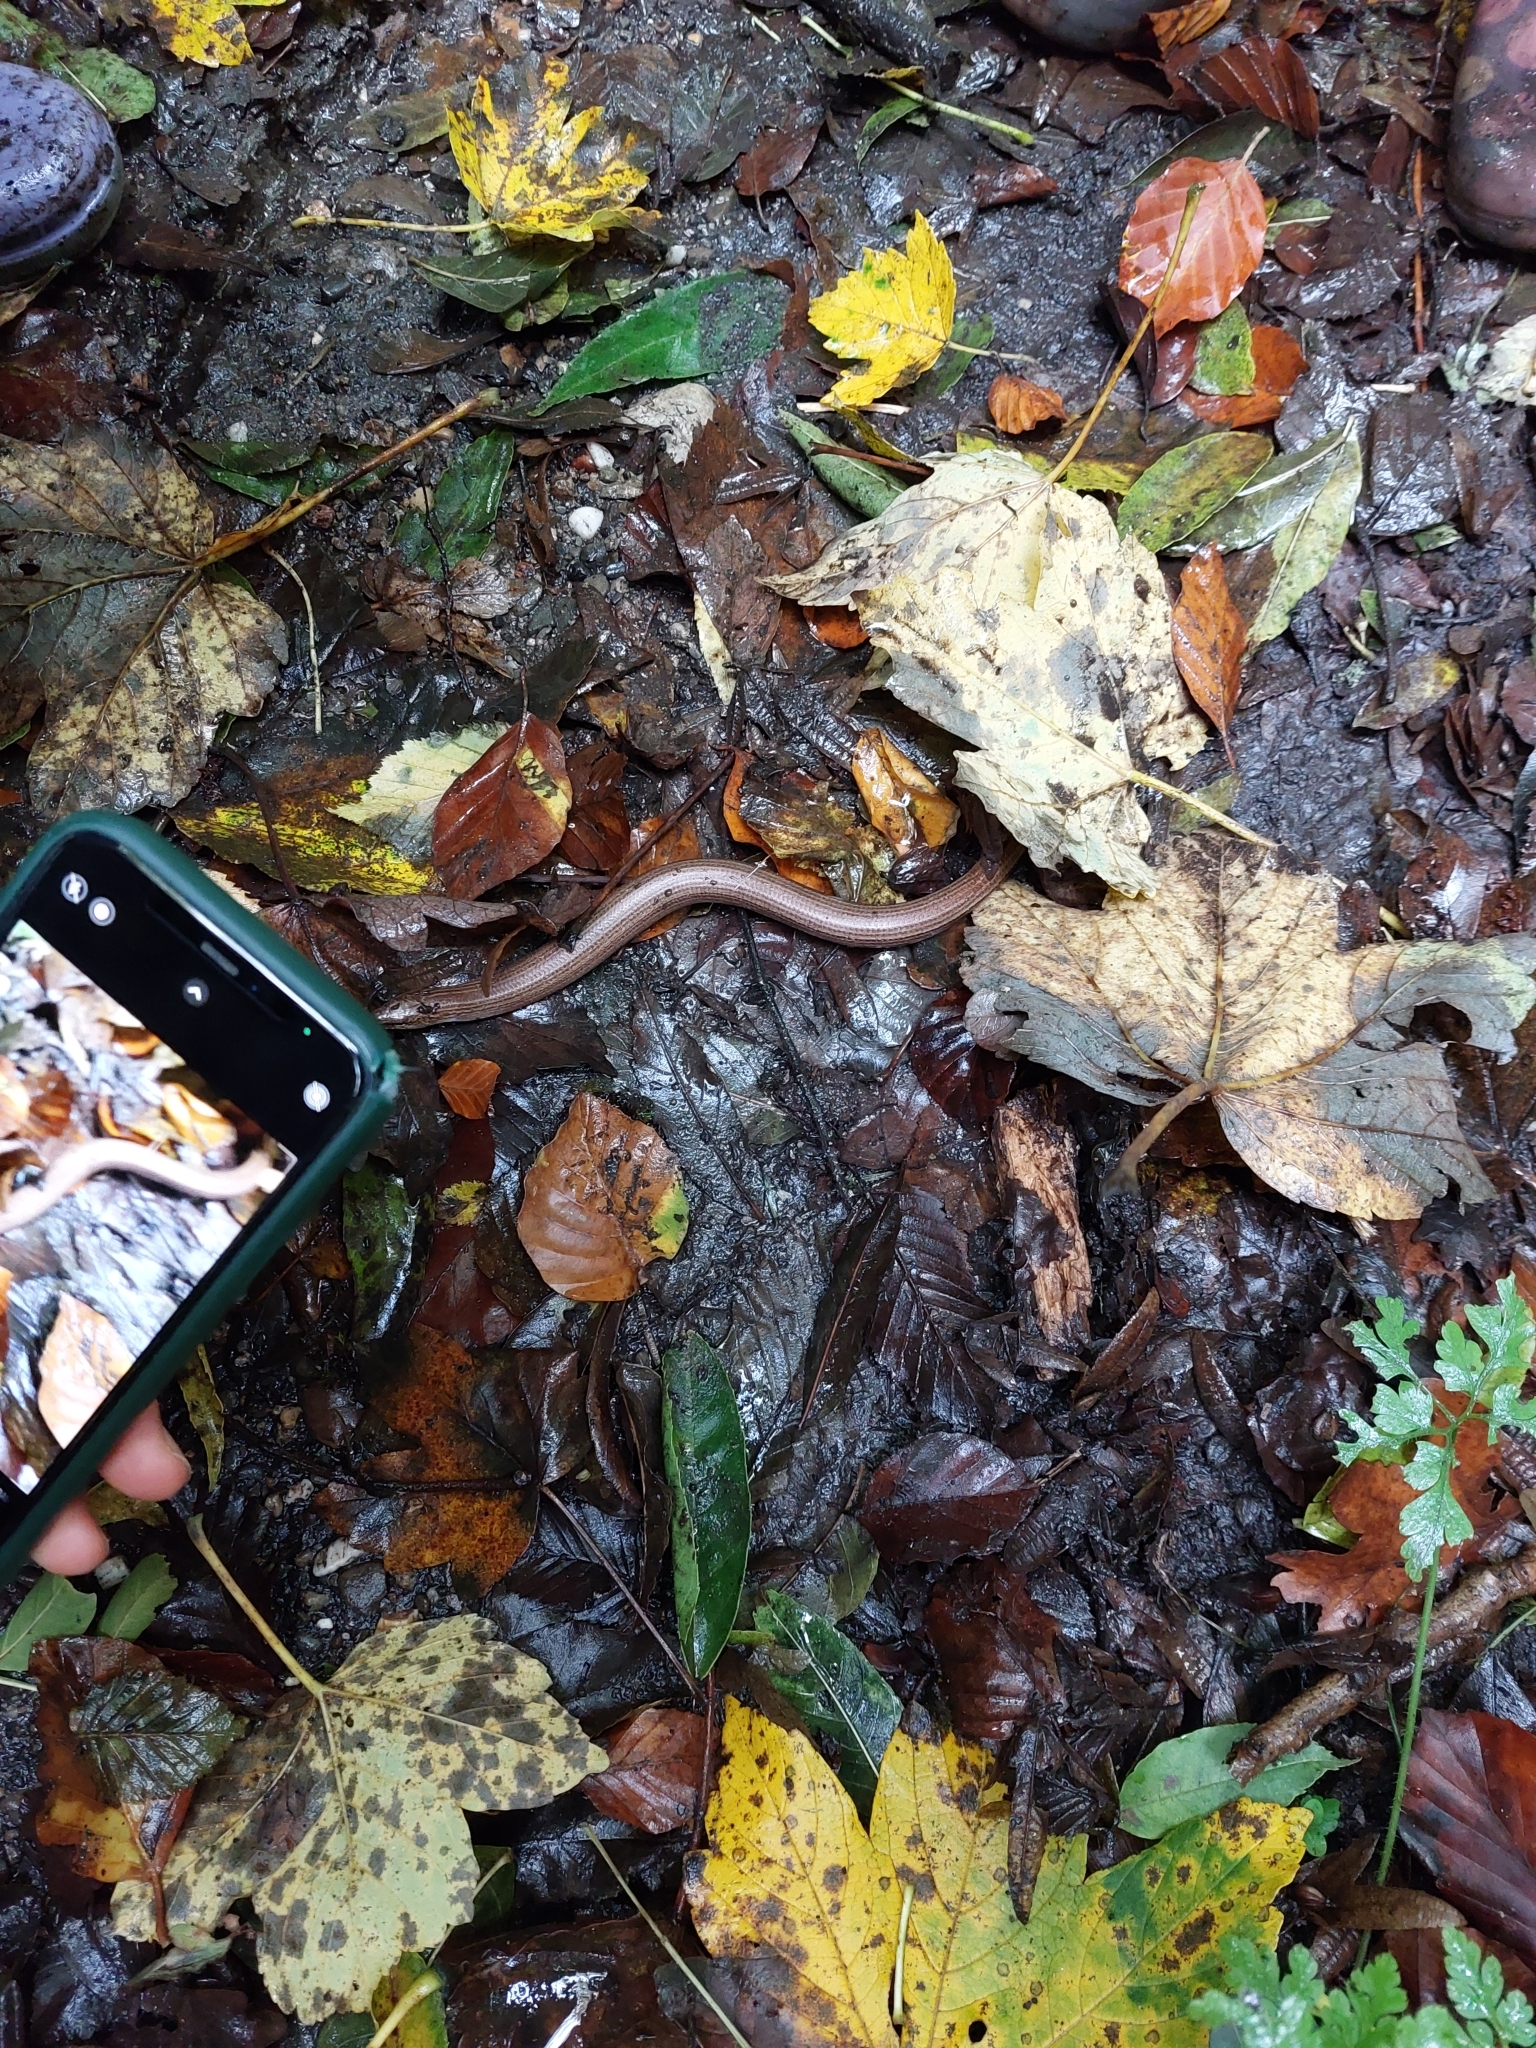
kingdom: Animalia
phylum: Chordata
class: Squamata
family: Anguidae
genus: Anguis
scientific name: Anguis fragilis
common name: Slow worm
